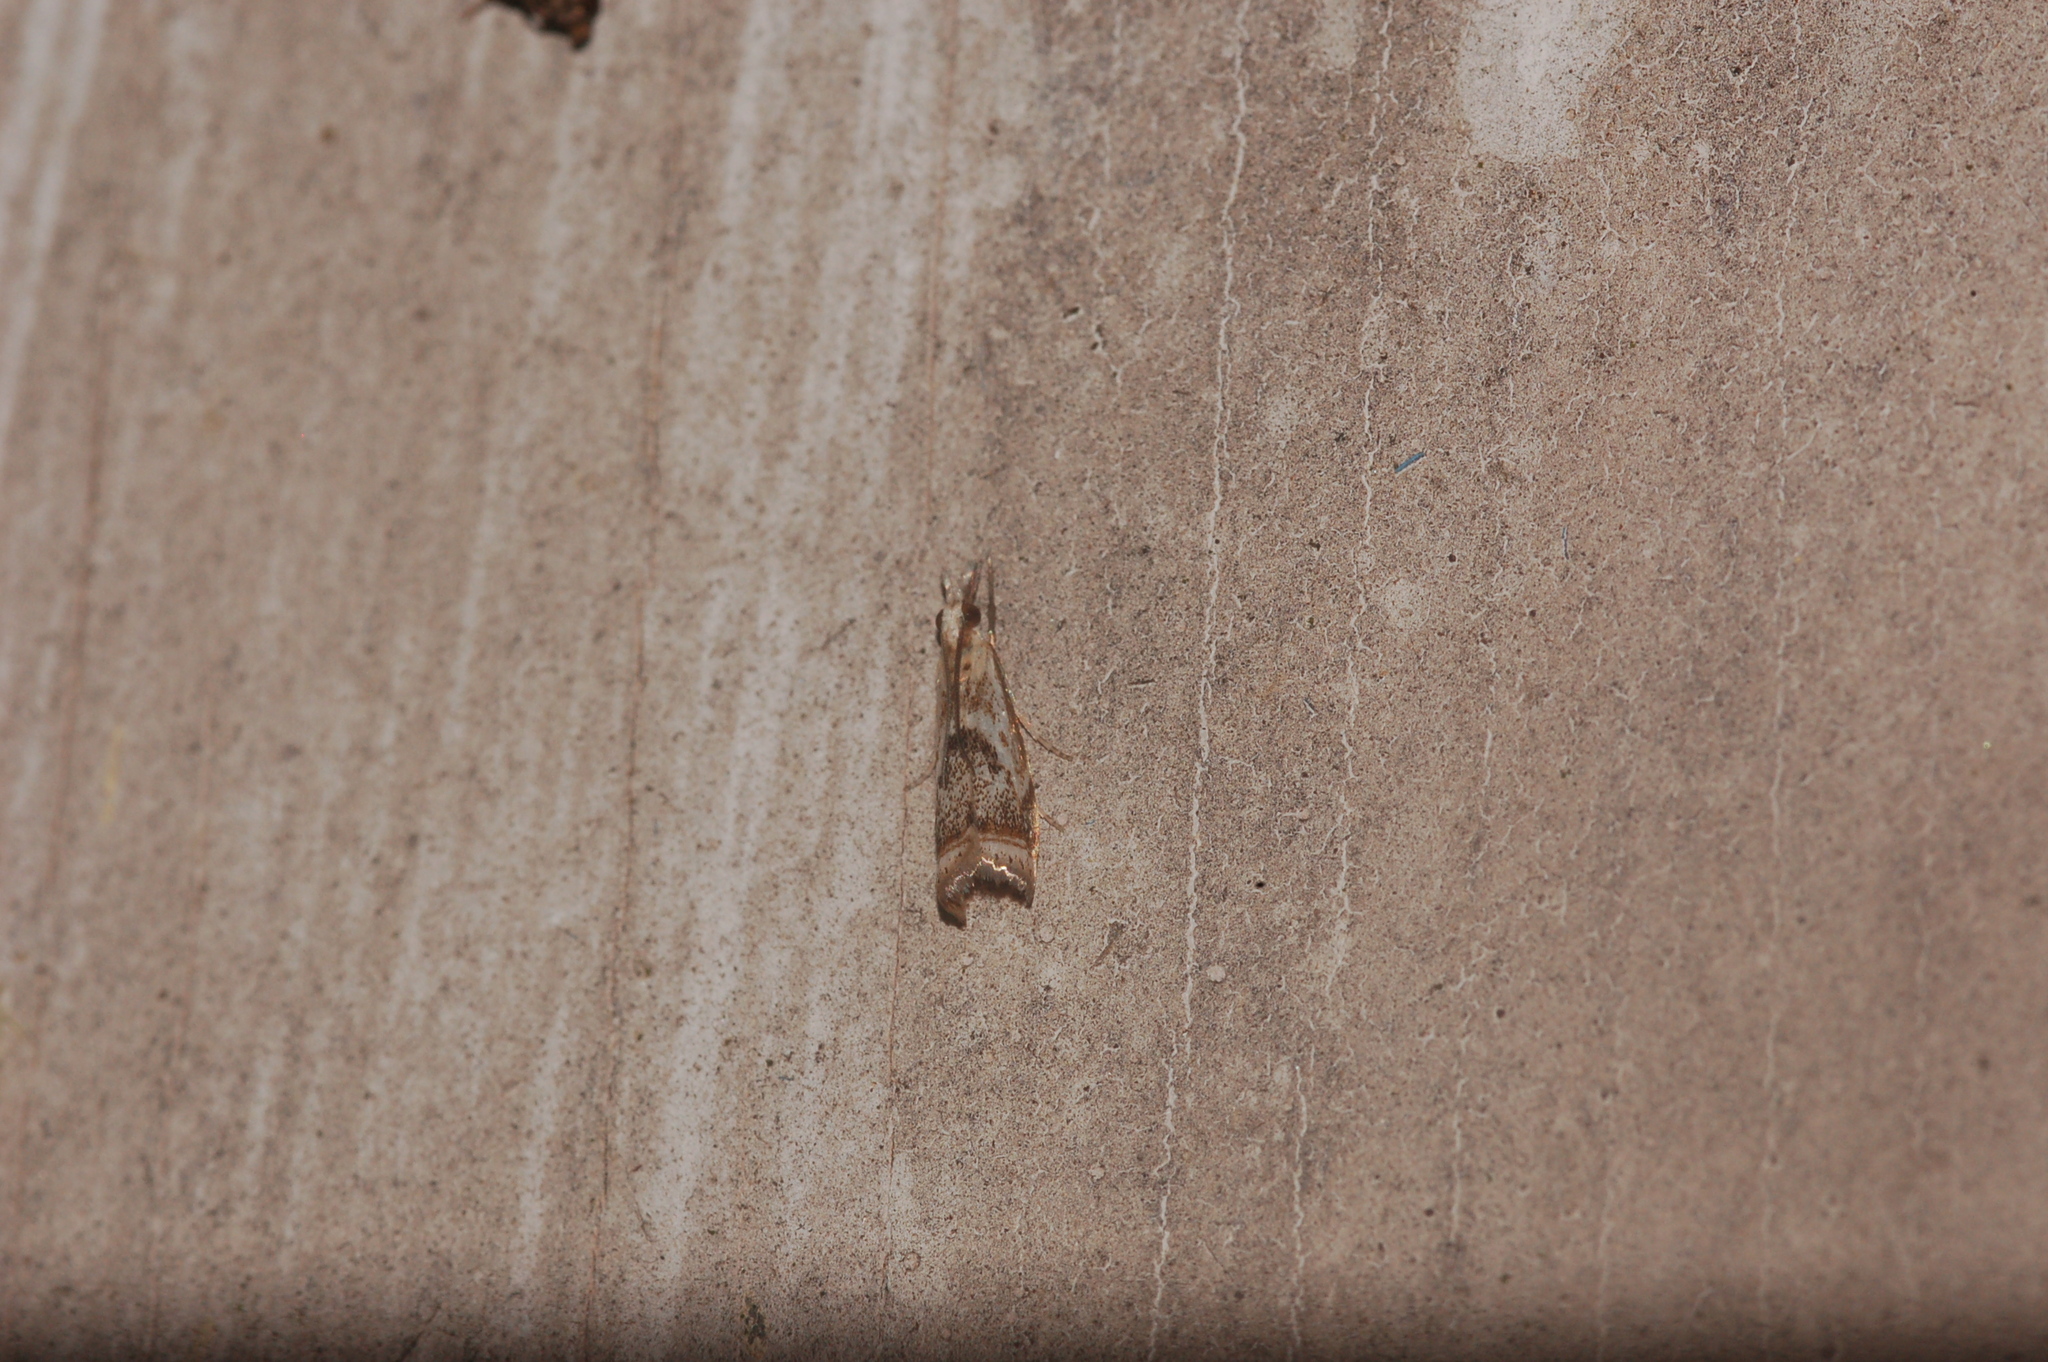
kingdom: Animalia
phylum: Arthropoda
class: Insecta
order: Lepidoptera
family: Crambidae
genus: Microcrambus
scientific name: Microcrambus elegans
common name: Elegant grass-veneer
